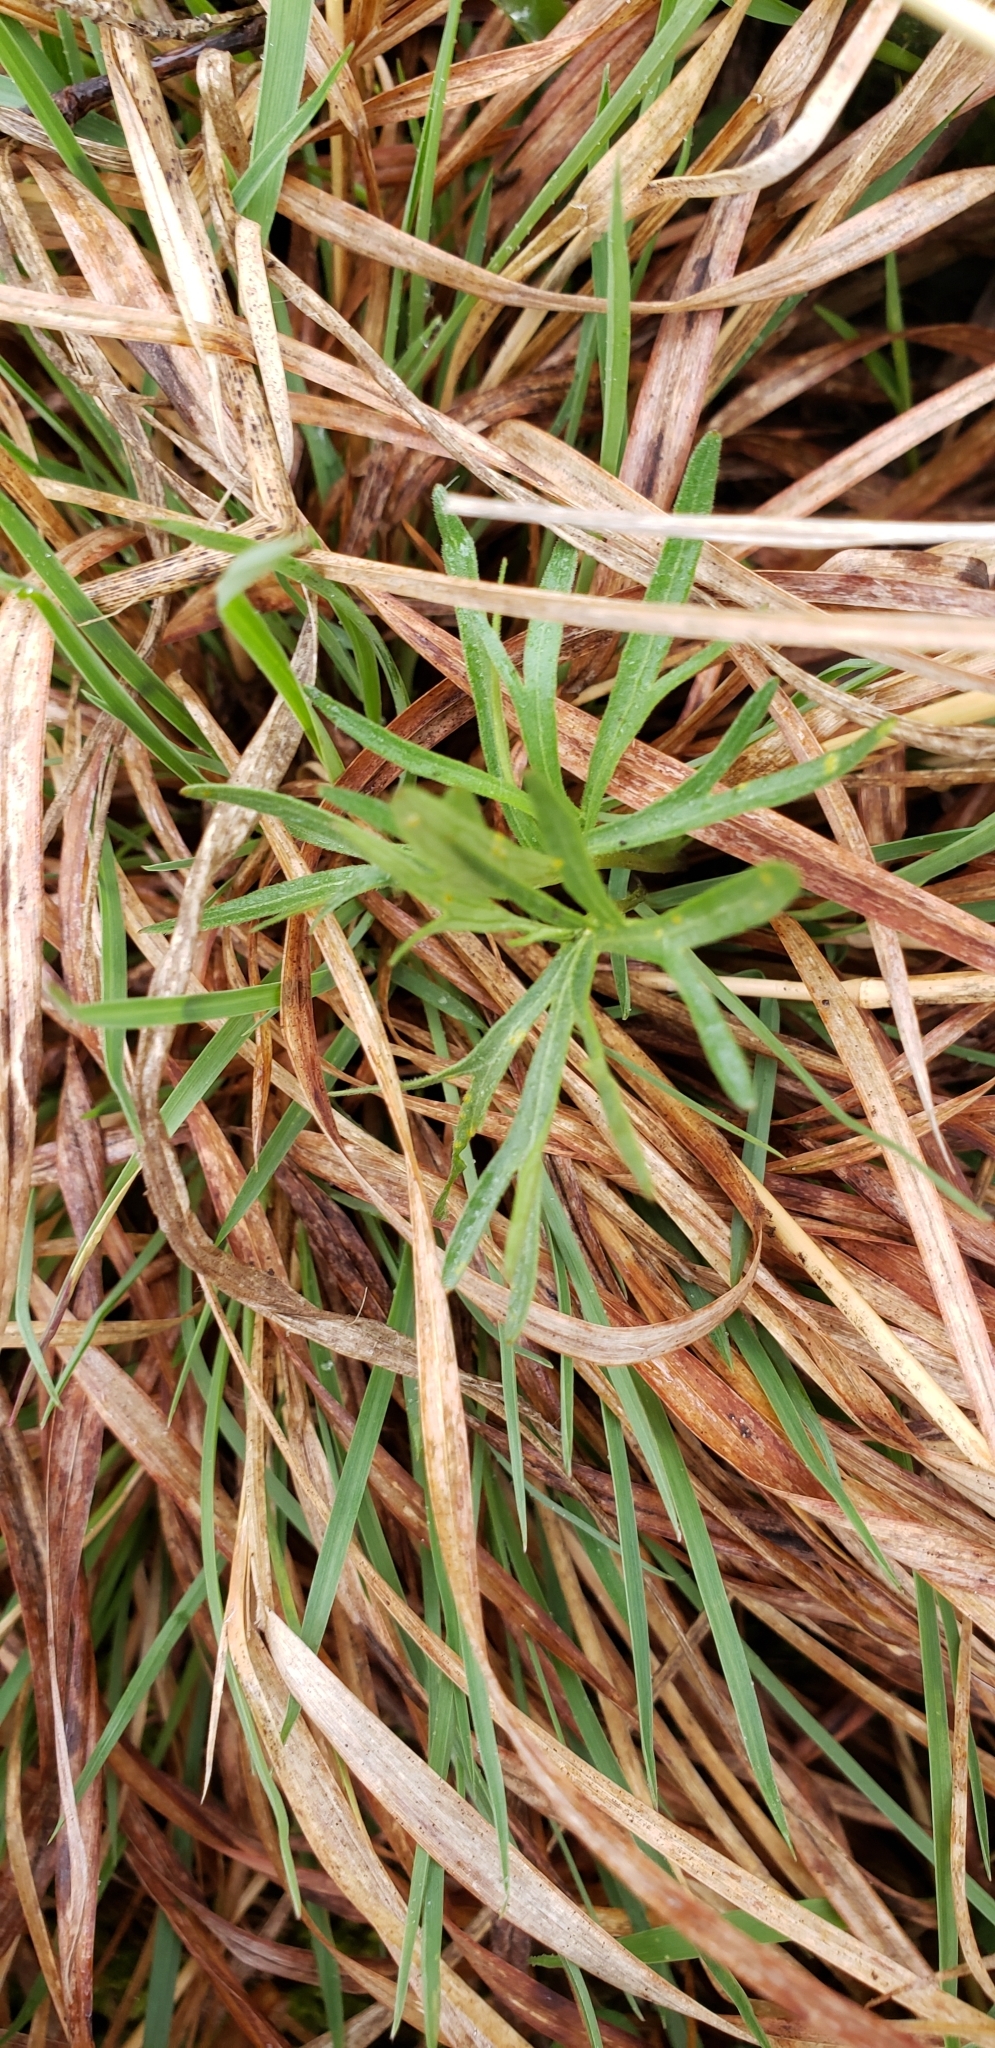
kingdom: Plantae
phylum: Tracheophyta
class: Magnoliopsida
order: Malpighiales
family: Violaceae
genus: Viola
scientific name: Viola pedatifida
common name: Prairie violet
